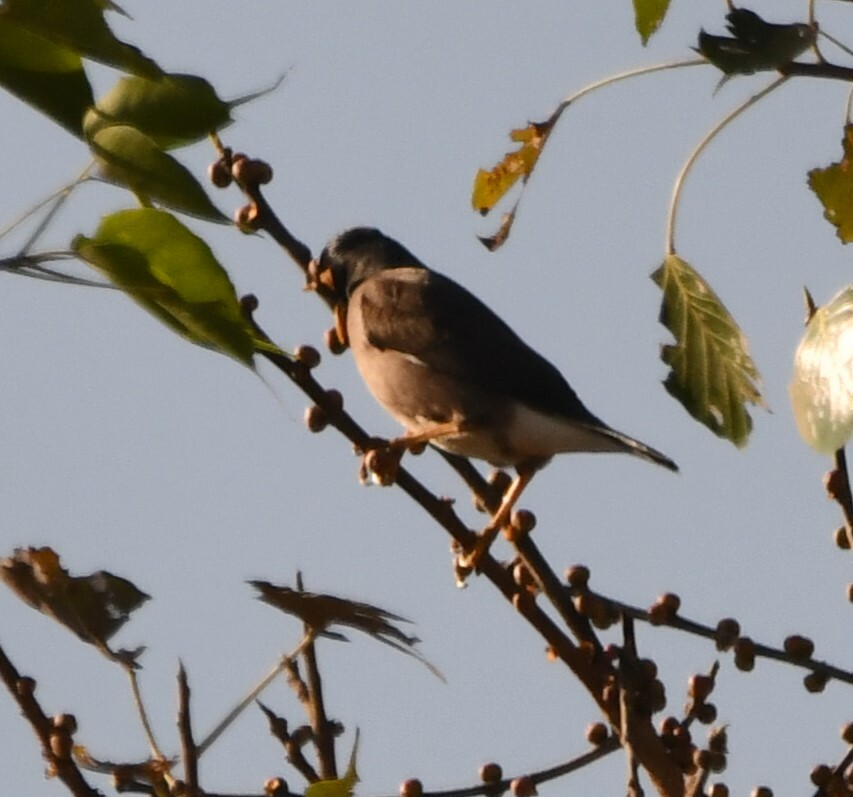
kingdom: Animalia
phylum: Chordata
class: Aves
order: Passeriformes
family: Sturnidae
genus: Acridotheres
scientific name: Acridotheres tristis
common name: Common myna
